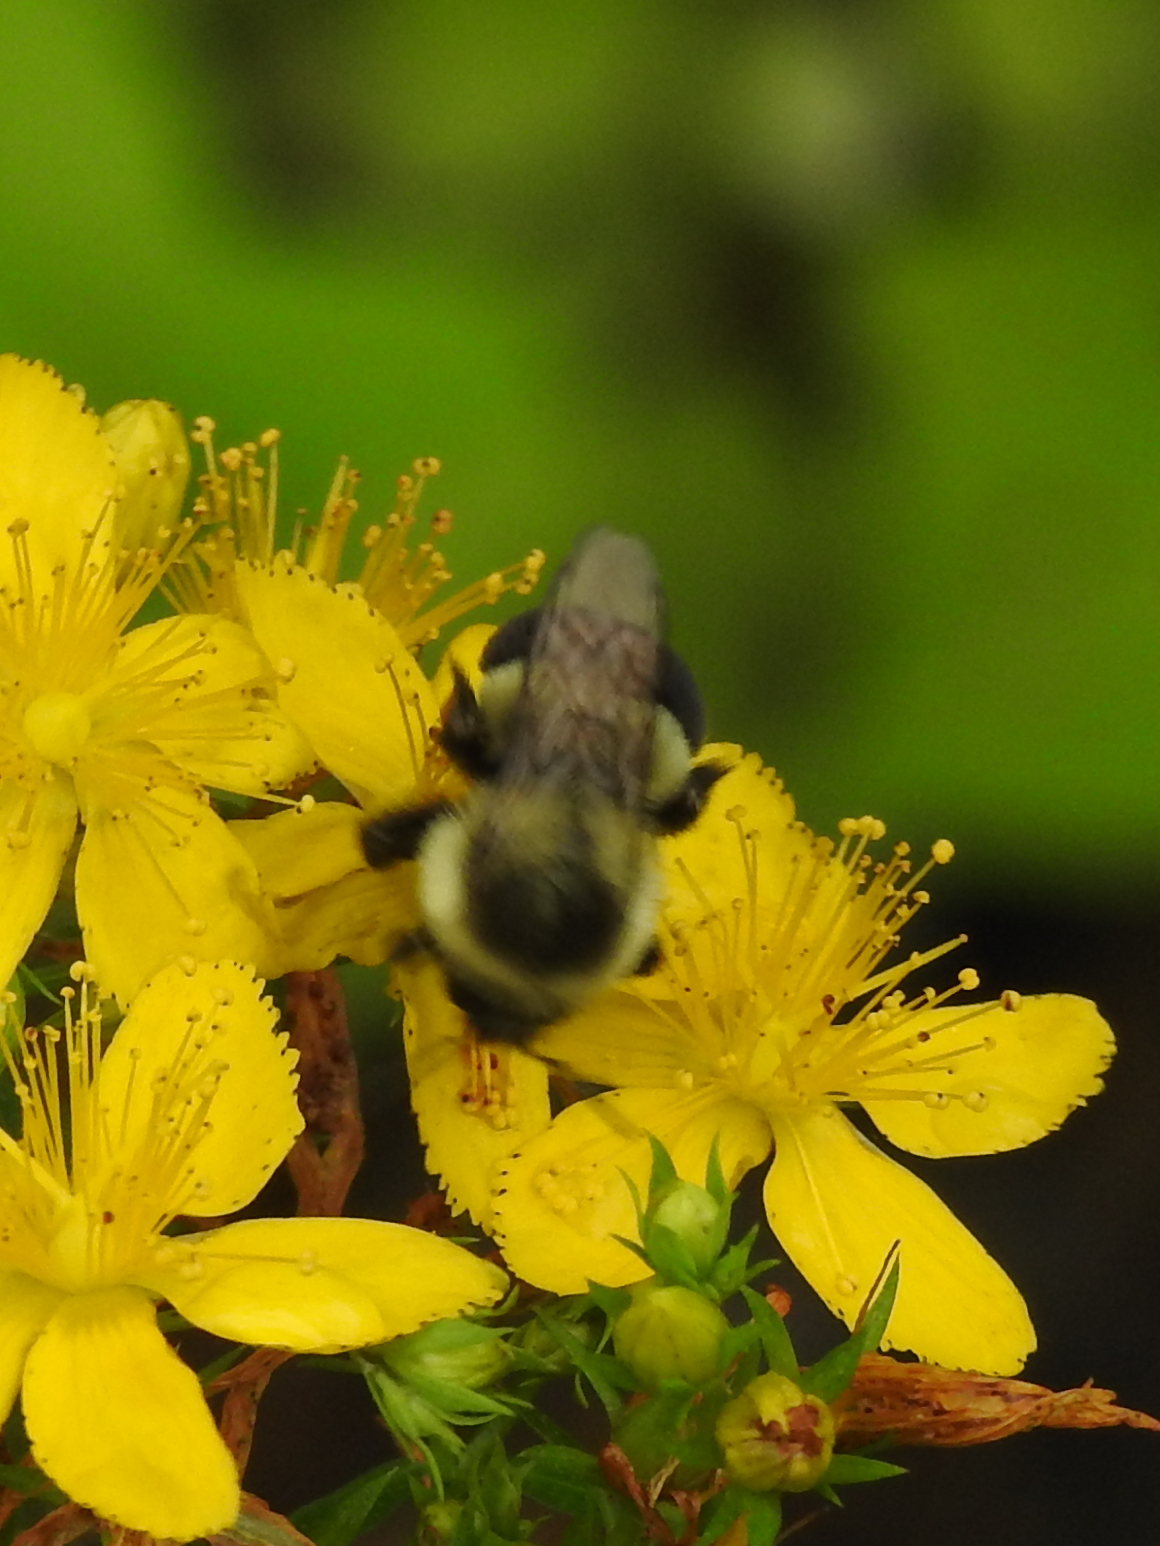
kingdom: Animalia
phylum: Arthropoda
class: Insecta
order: Hymenoptera
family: Apidae
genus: Bombus
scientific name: Bombus impatiens
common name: Common eastern bumble bee
